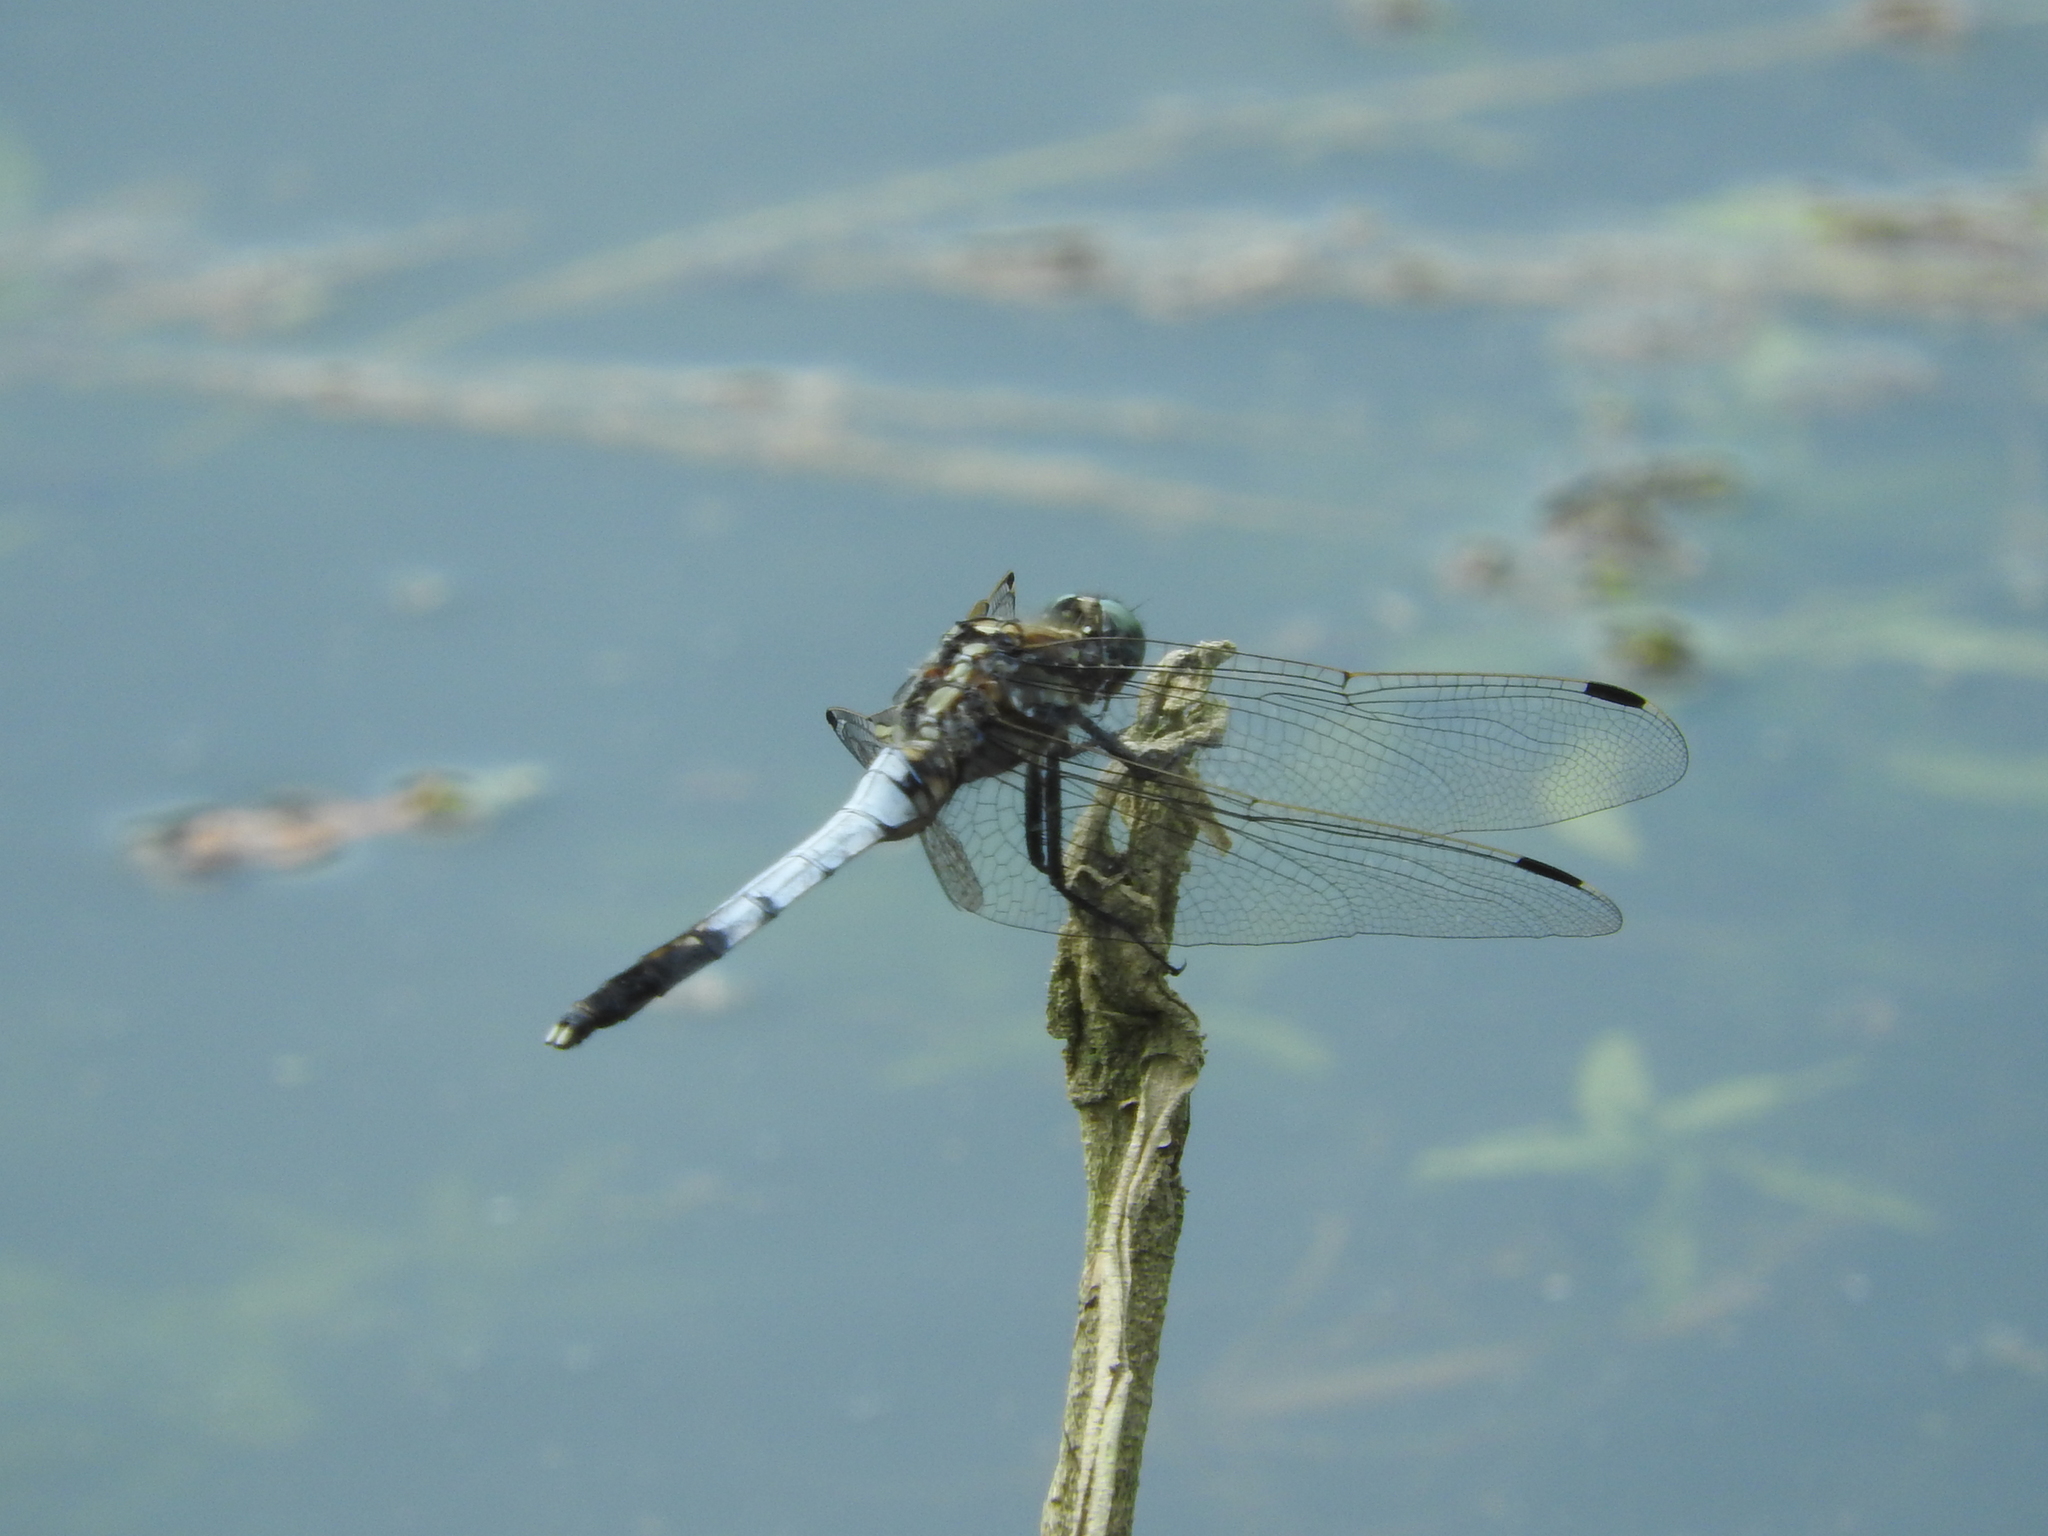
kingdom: Animalia
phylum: Arthropoda
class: Insecta
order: Odonata
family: Libellulidae
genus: Orthetrum
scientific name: Orthetrum albistylum
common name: White-tailed skimmer
